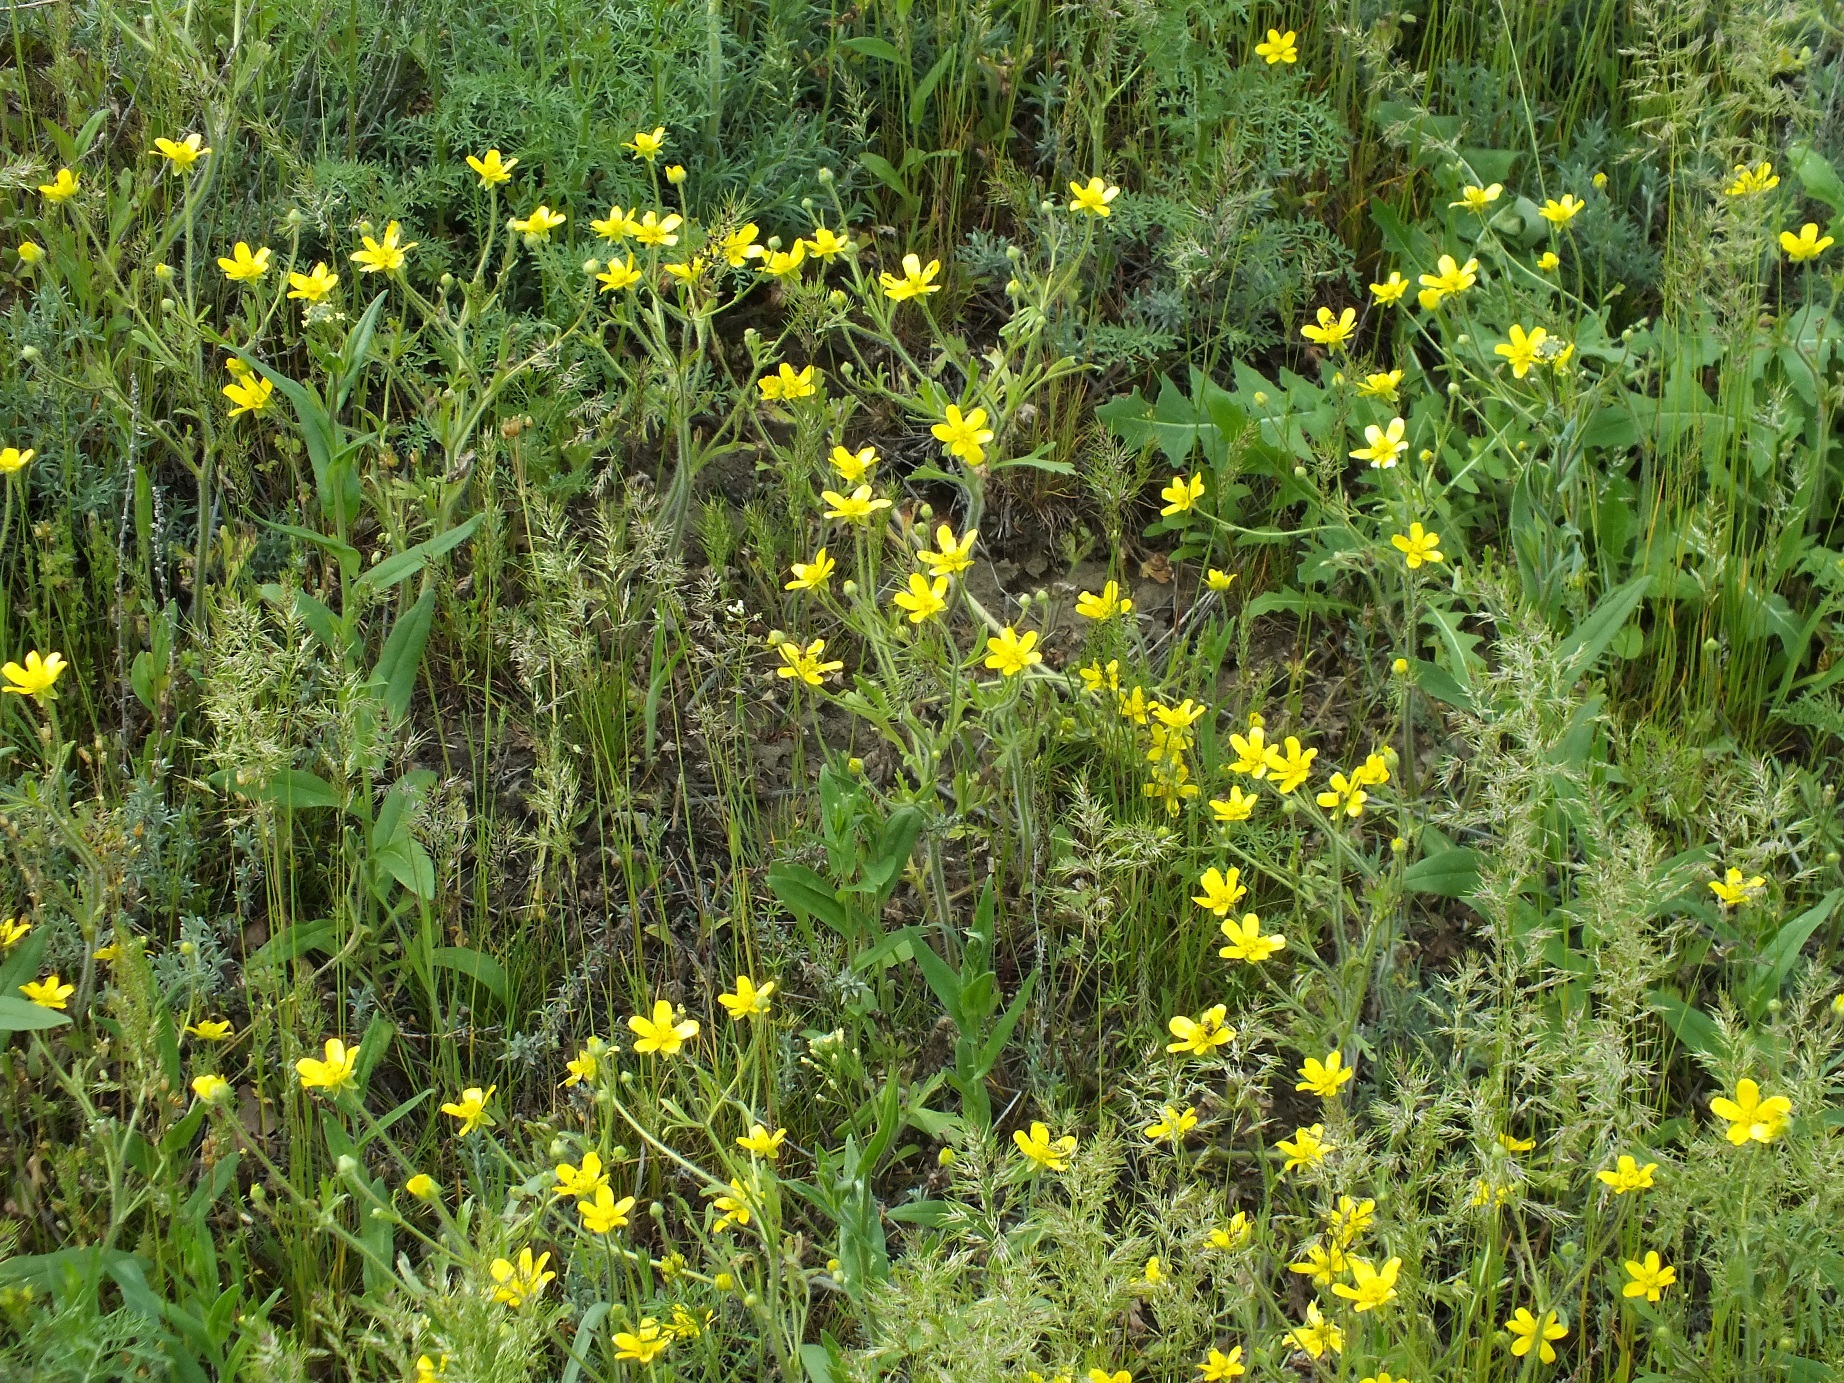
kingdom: Plantae
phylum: Tracheophyta
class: Magnoliopsida
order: Ranunculales
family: Ranunculaceae
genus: Ranunculus
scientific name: Ranunculus oxyspermus
